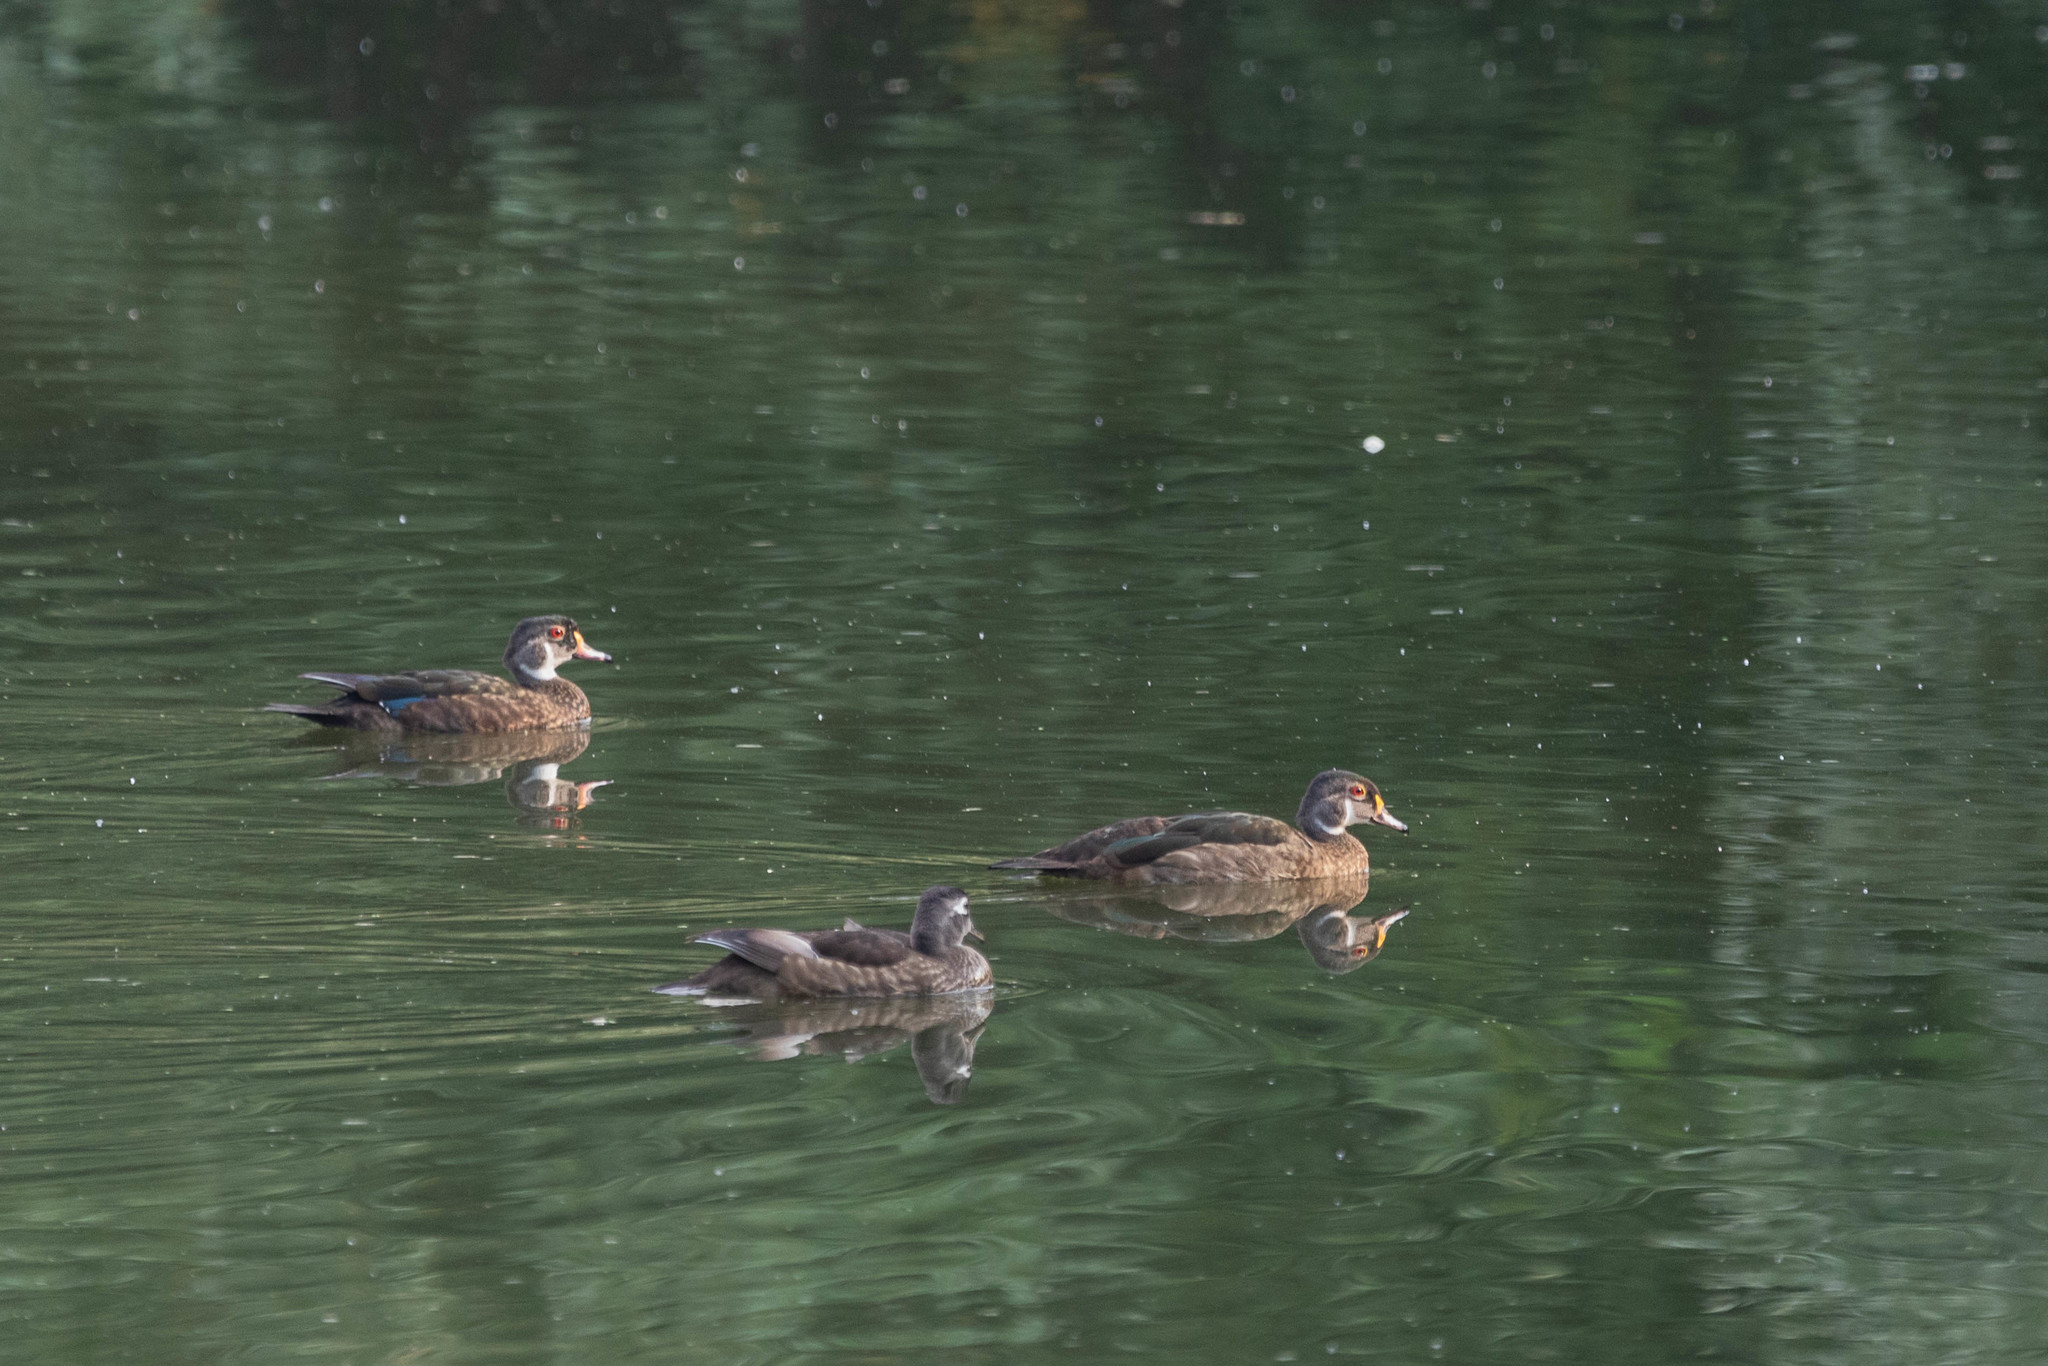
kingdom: Animalia
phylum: Chordata
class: Aves
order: Anseriformes
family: Anatidae
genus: Aix
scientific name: Aix sponsa
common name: Wood duck
